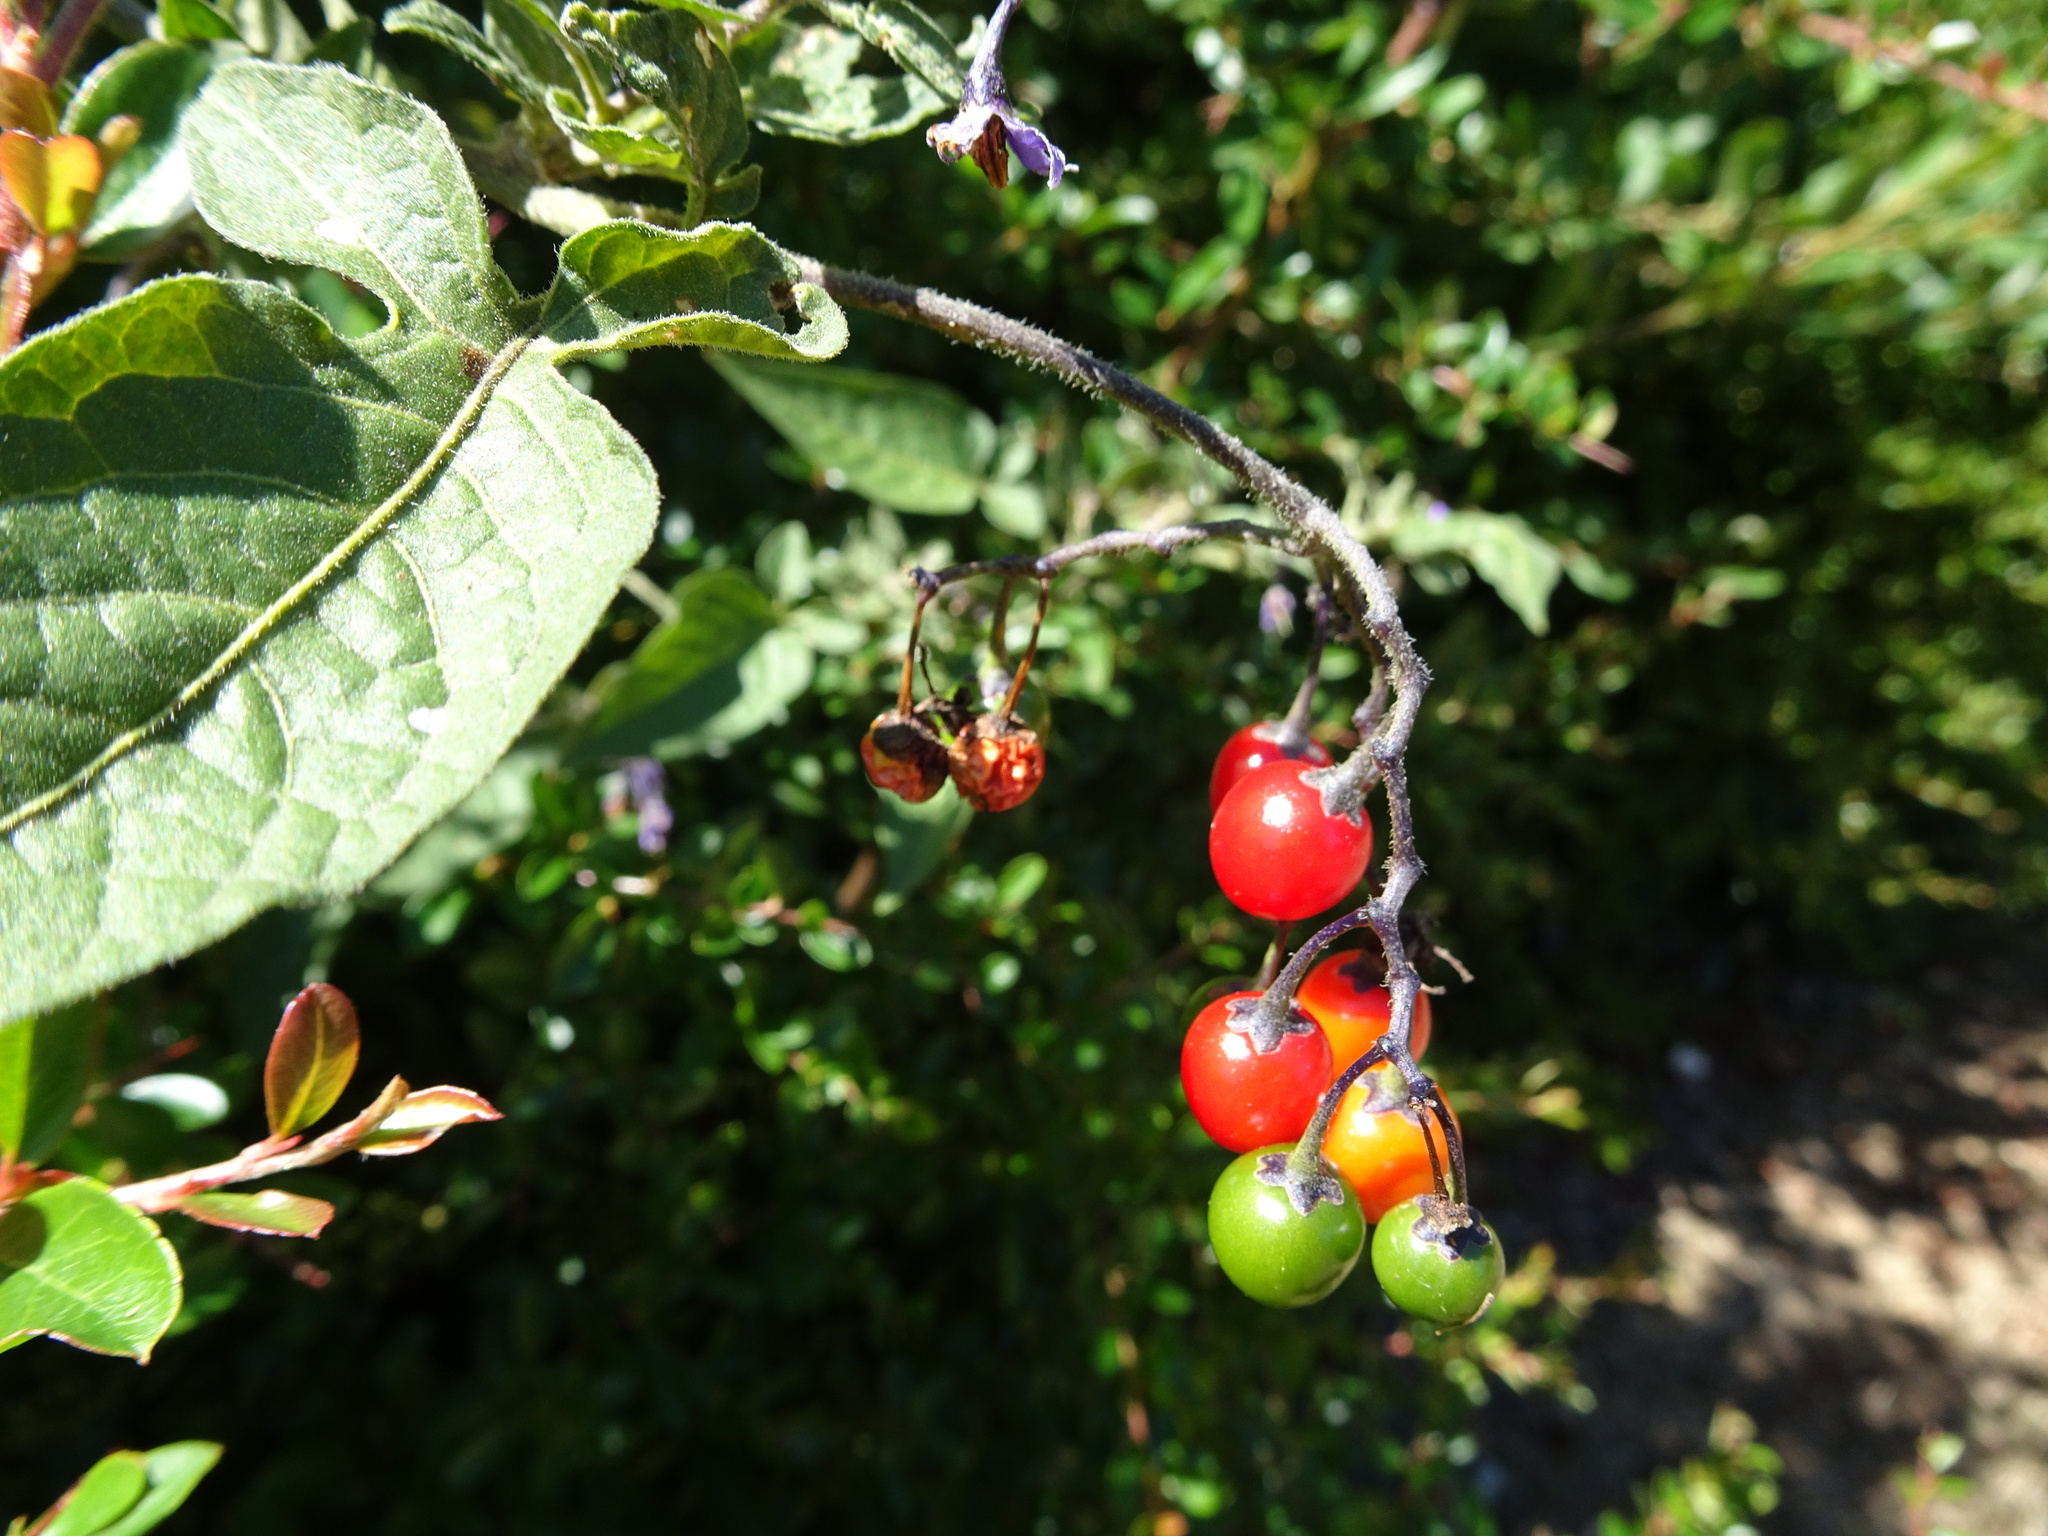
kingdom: Plantae
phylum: Tracheophyta
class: Magnoliopsida
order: Solanales
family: Solanaceae
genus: Solanum
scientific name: Solanum dulcamara
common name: Climbing nightshade
